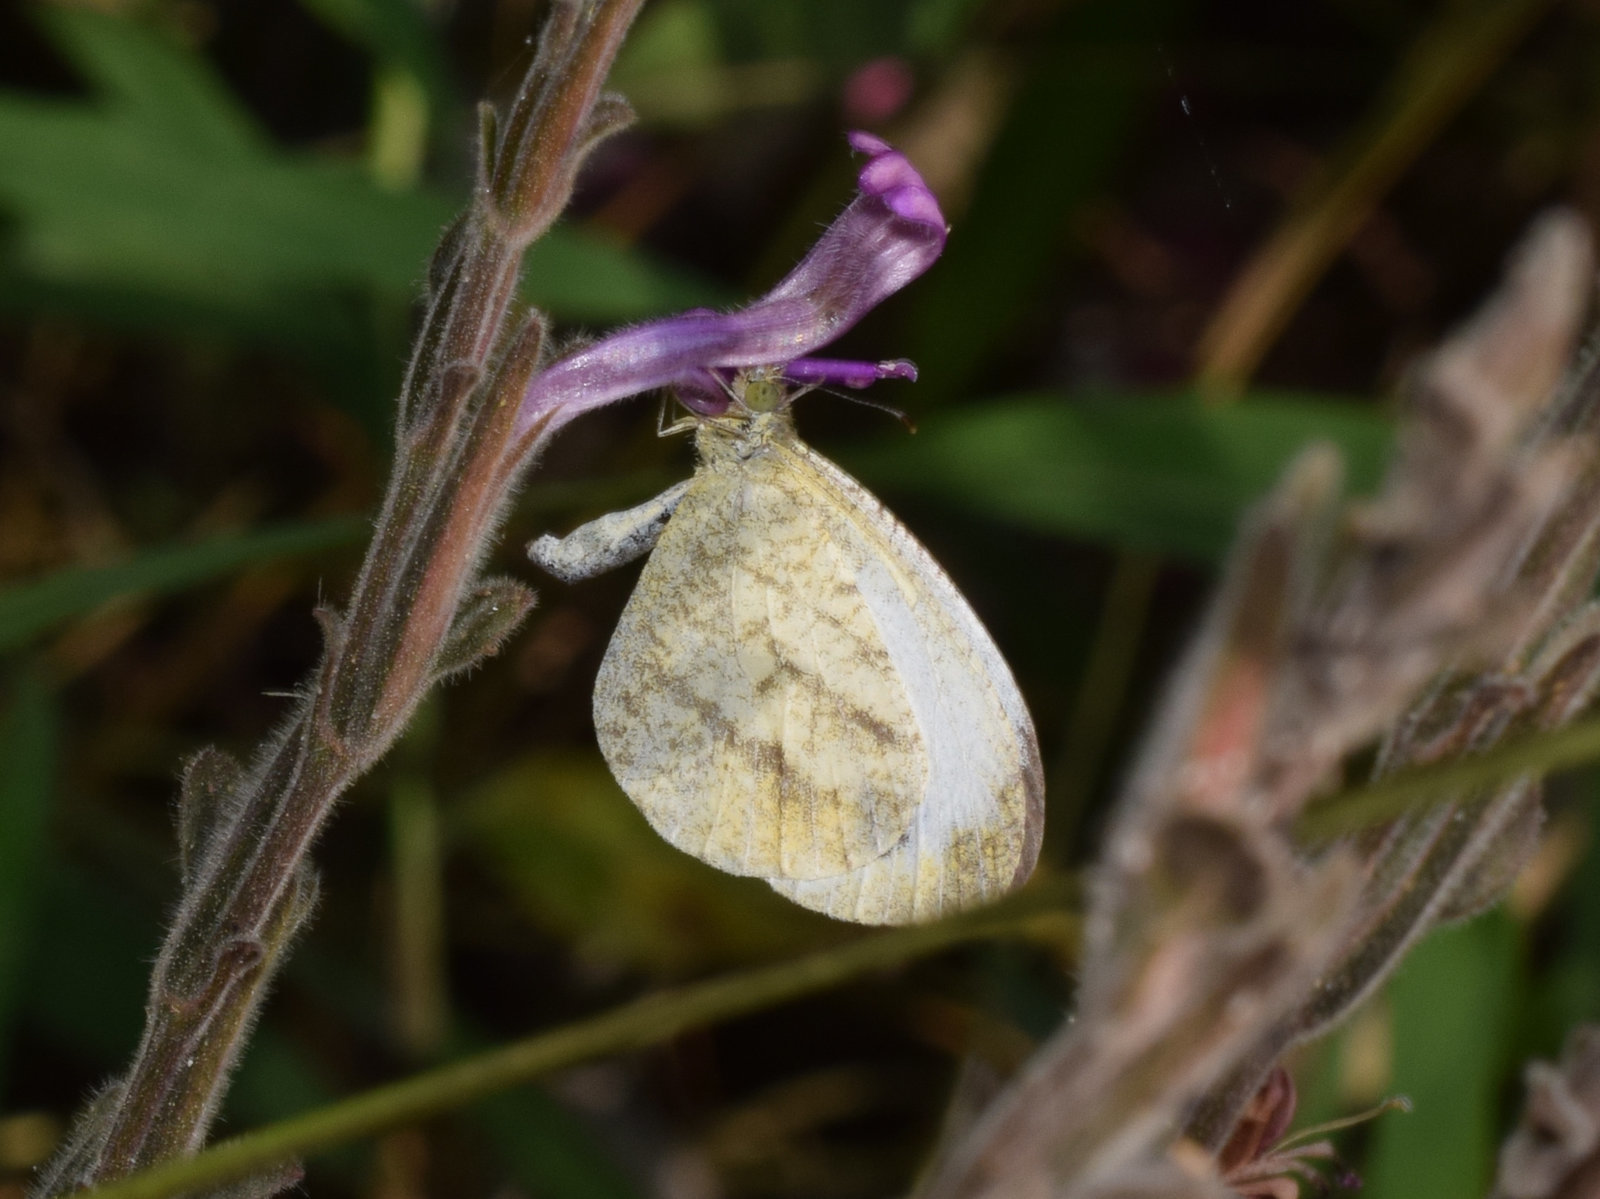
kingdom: Animalia
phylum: Arthropoda
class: Insecta
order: Lepidoptera
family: Pieridae
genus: Leptosia
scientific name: Leptosia nina
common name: Psyche
